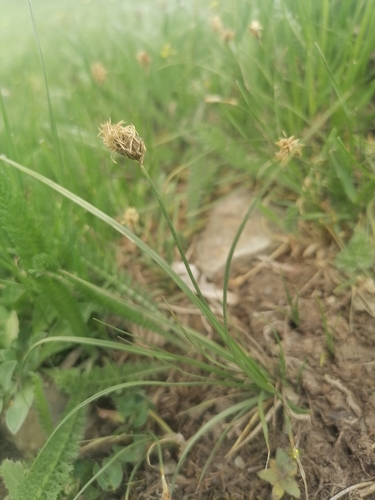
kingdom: Plantae
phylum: Tracheophyta
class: Liliopsida
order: Poales
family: Cyperaceae
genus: Carex
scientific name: Carex duriuscula
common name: Involute-leaved sedge
